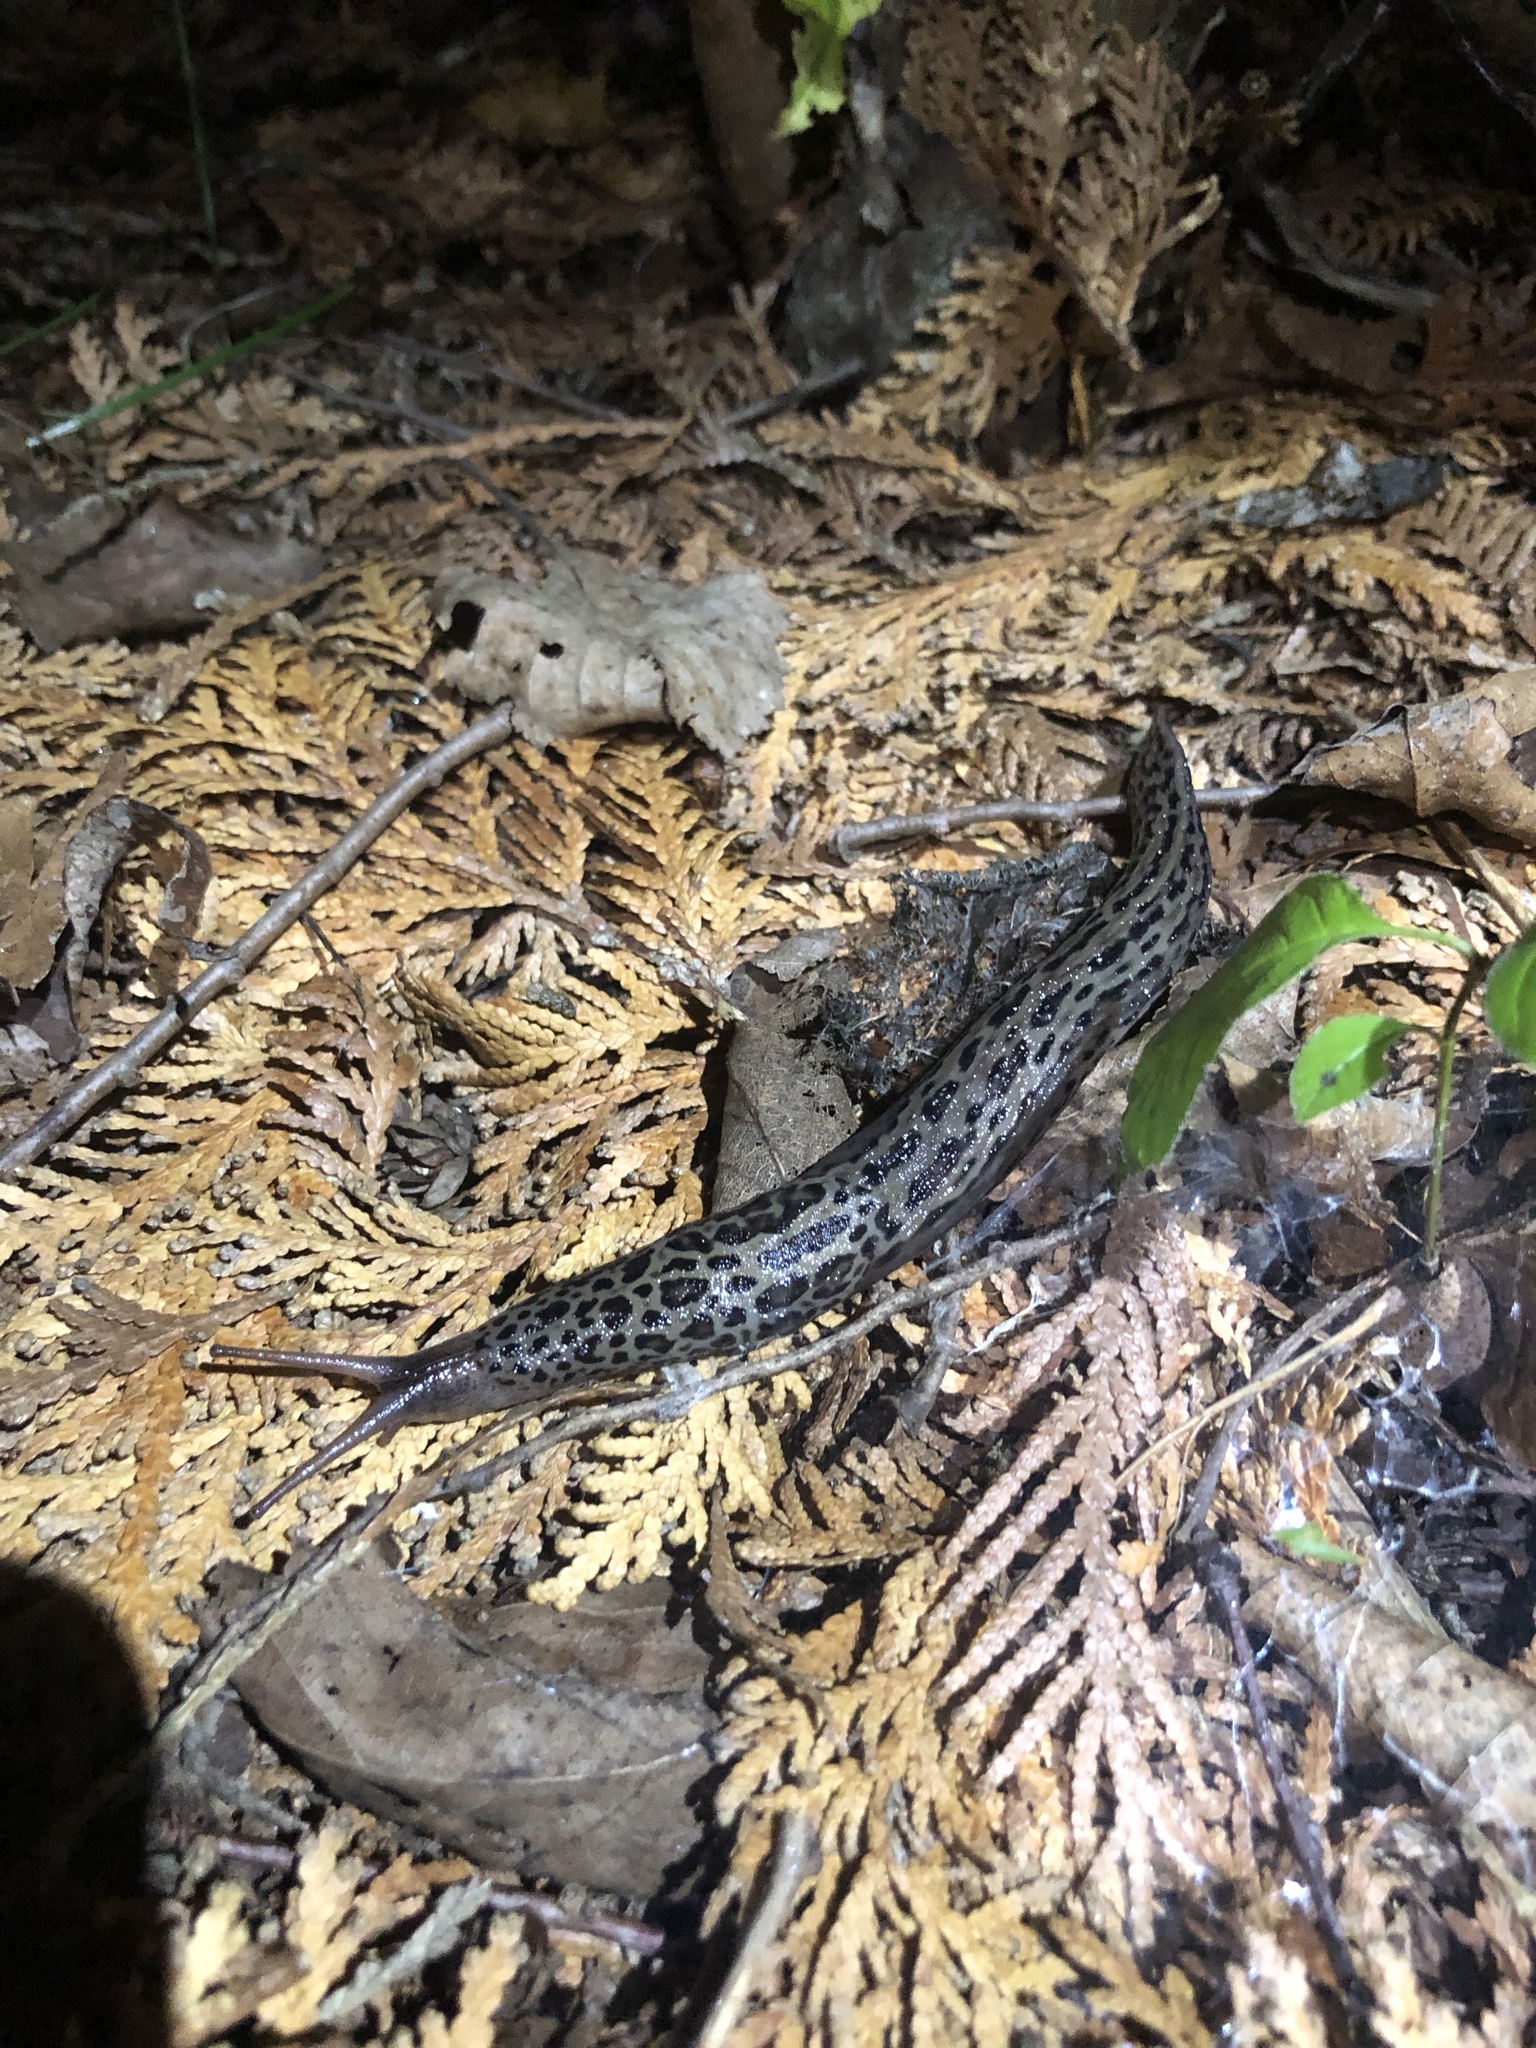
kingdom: Animalia
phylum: Mollusca
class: Gastropoda
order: Stylommatophora
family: Limacidae
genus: Limax
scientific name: Limax maximus
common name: Great grey slug
